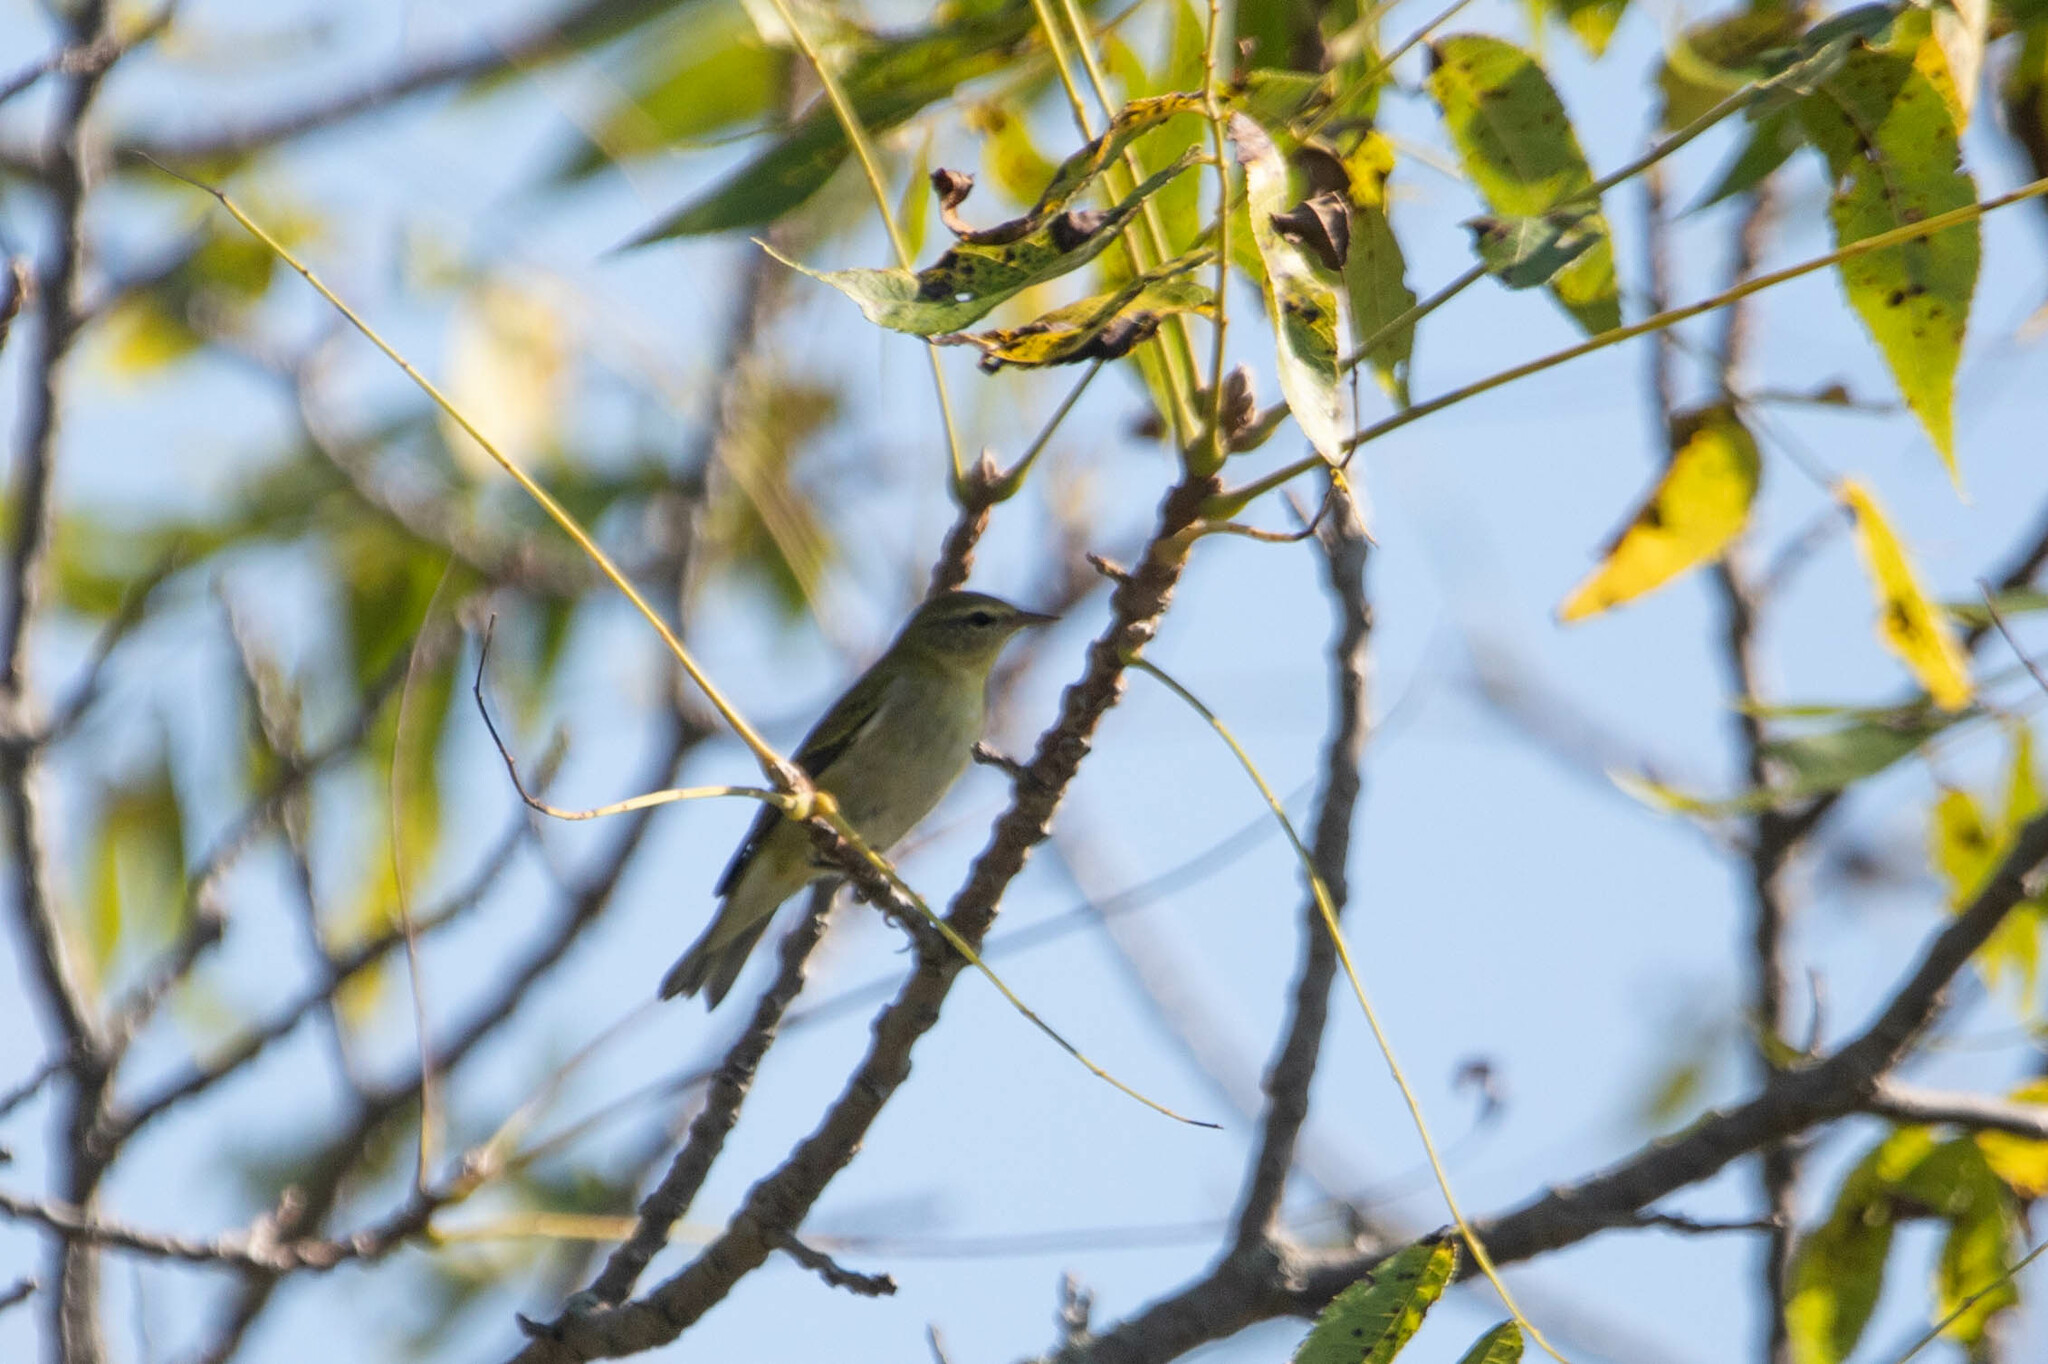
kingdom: Animalia
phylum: Chordata
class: Aves
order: Passeriformes
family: Parulidae
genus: Leiothlypis
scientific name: Leiothlypis peregrina
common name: Tennessee warbler
